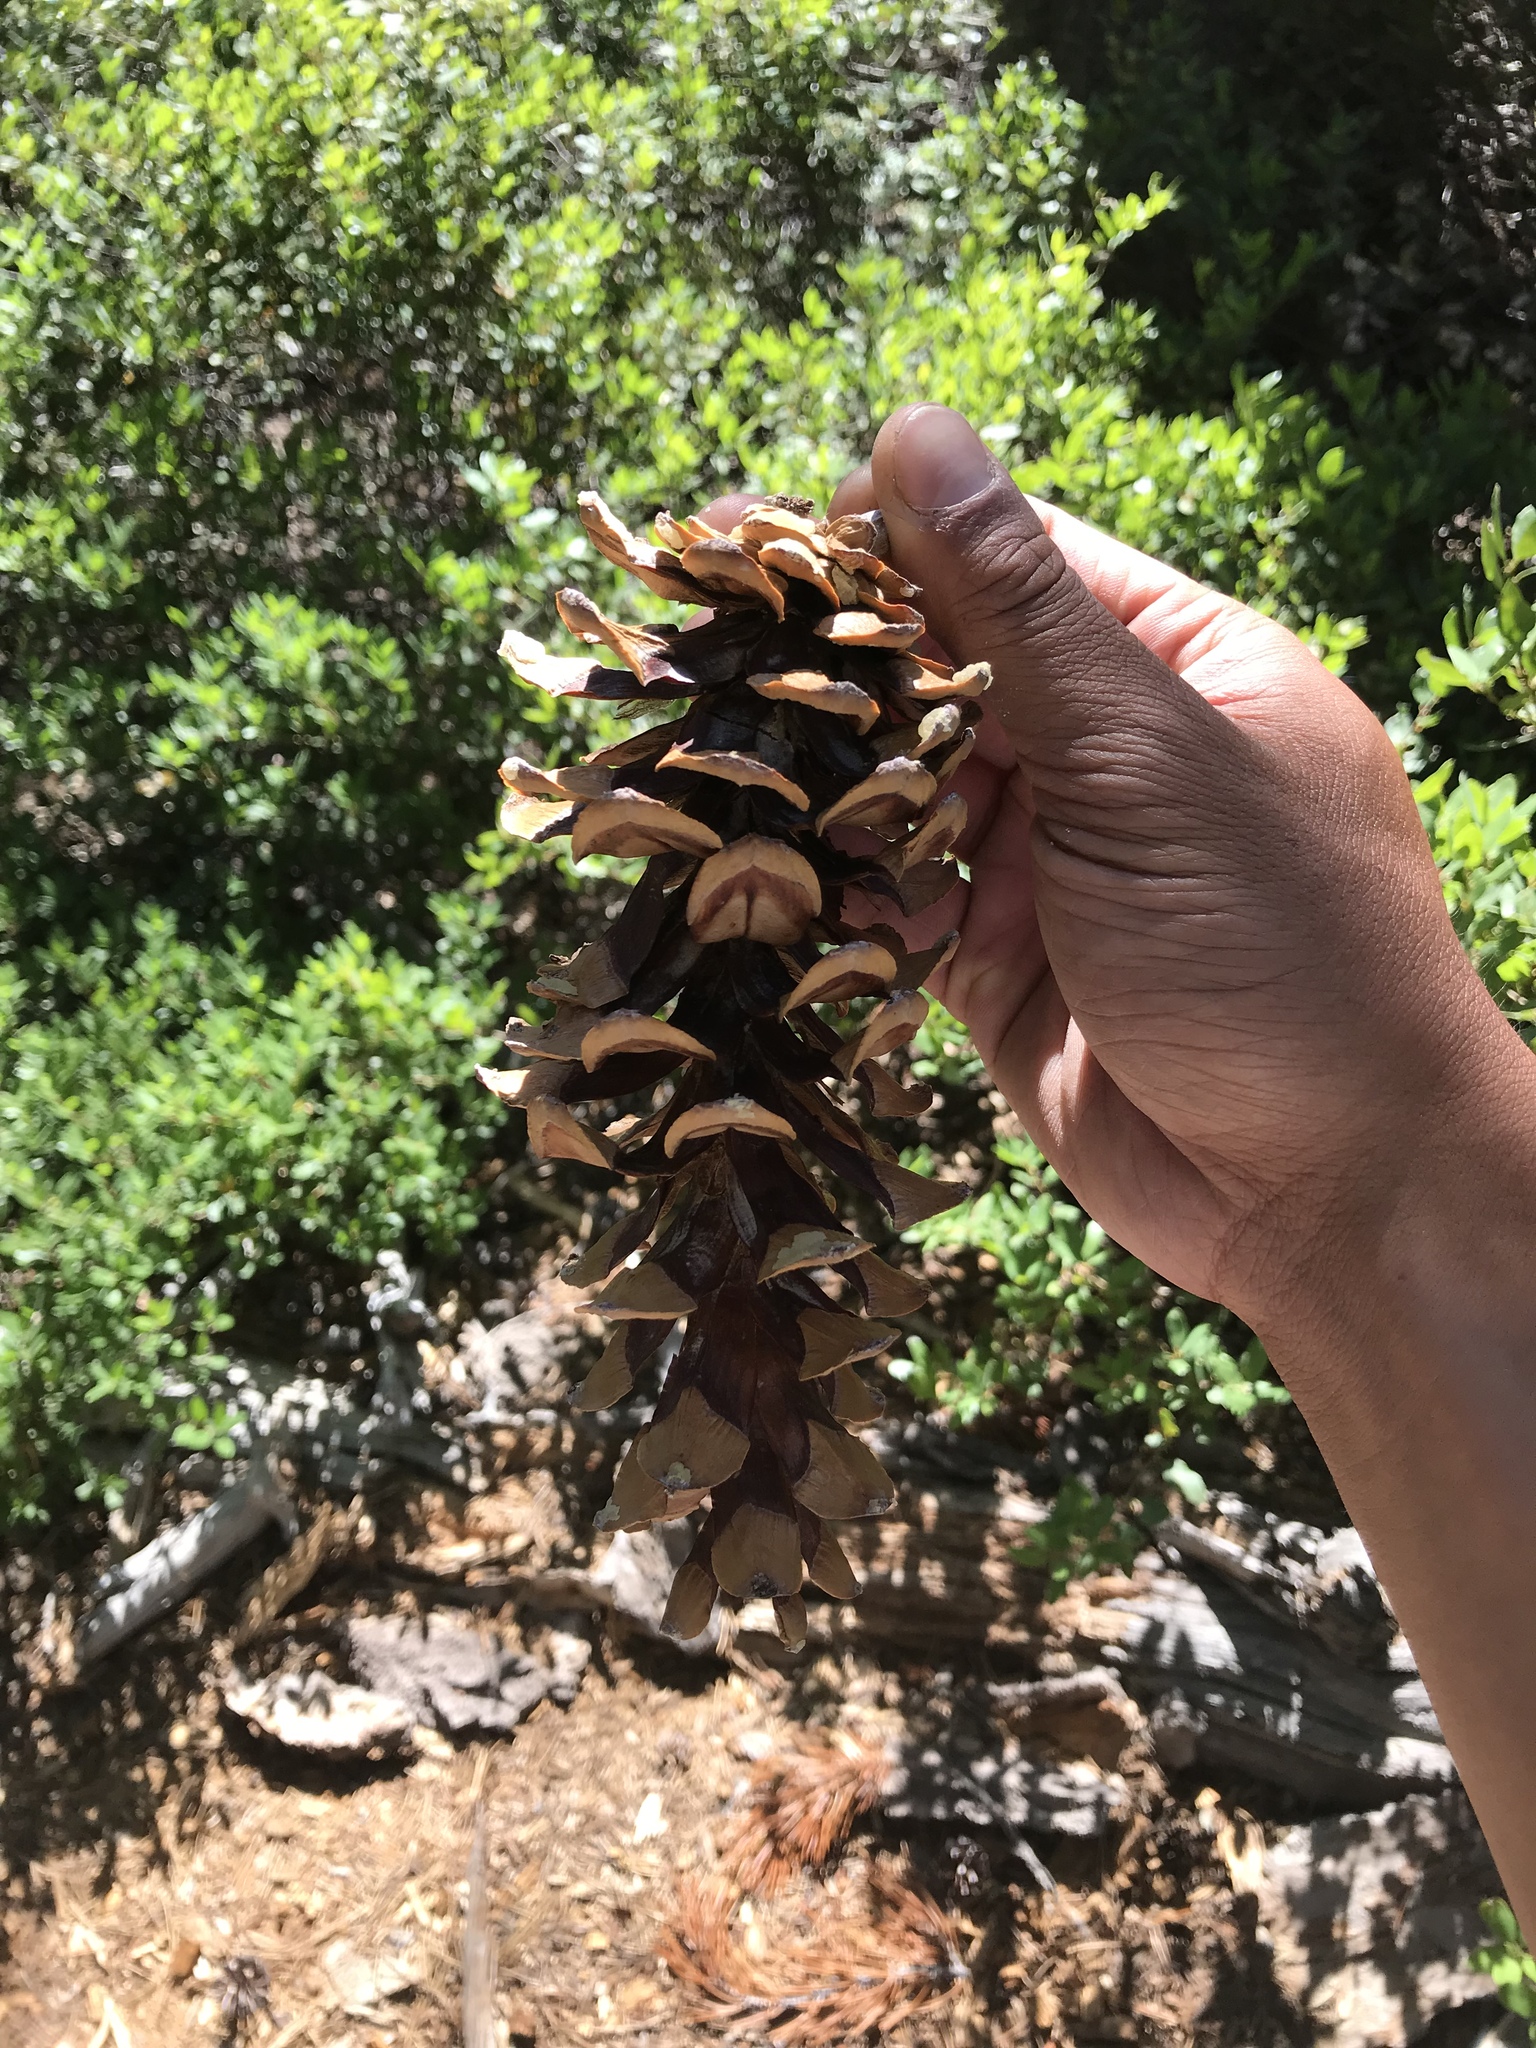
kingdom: Plantae
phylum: Tracheophyta
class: Pinopsida
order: Pinales
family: Pinaceae
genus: Pinus
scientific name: Pinus monticola
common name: Western white pine
